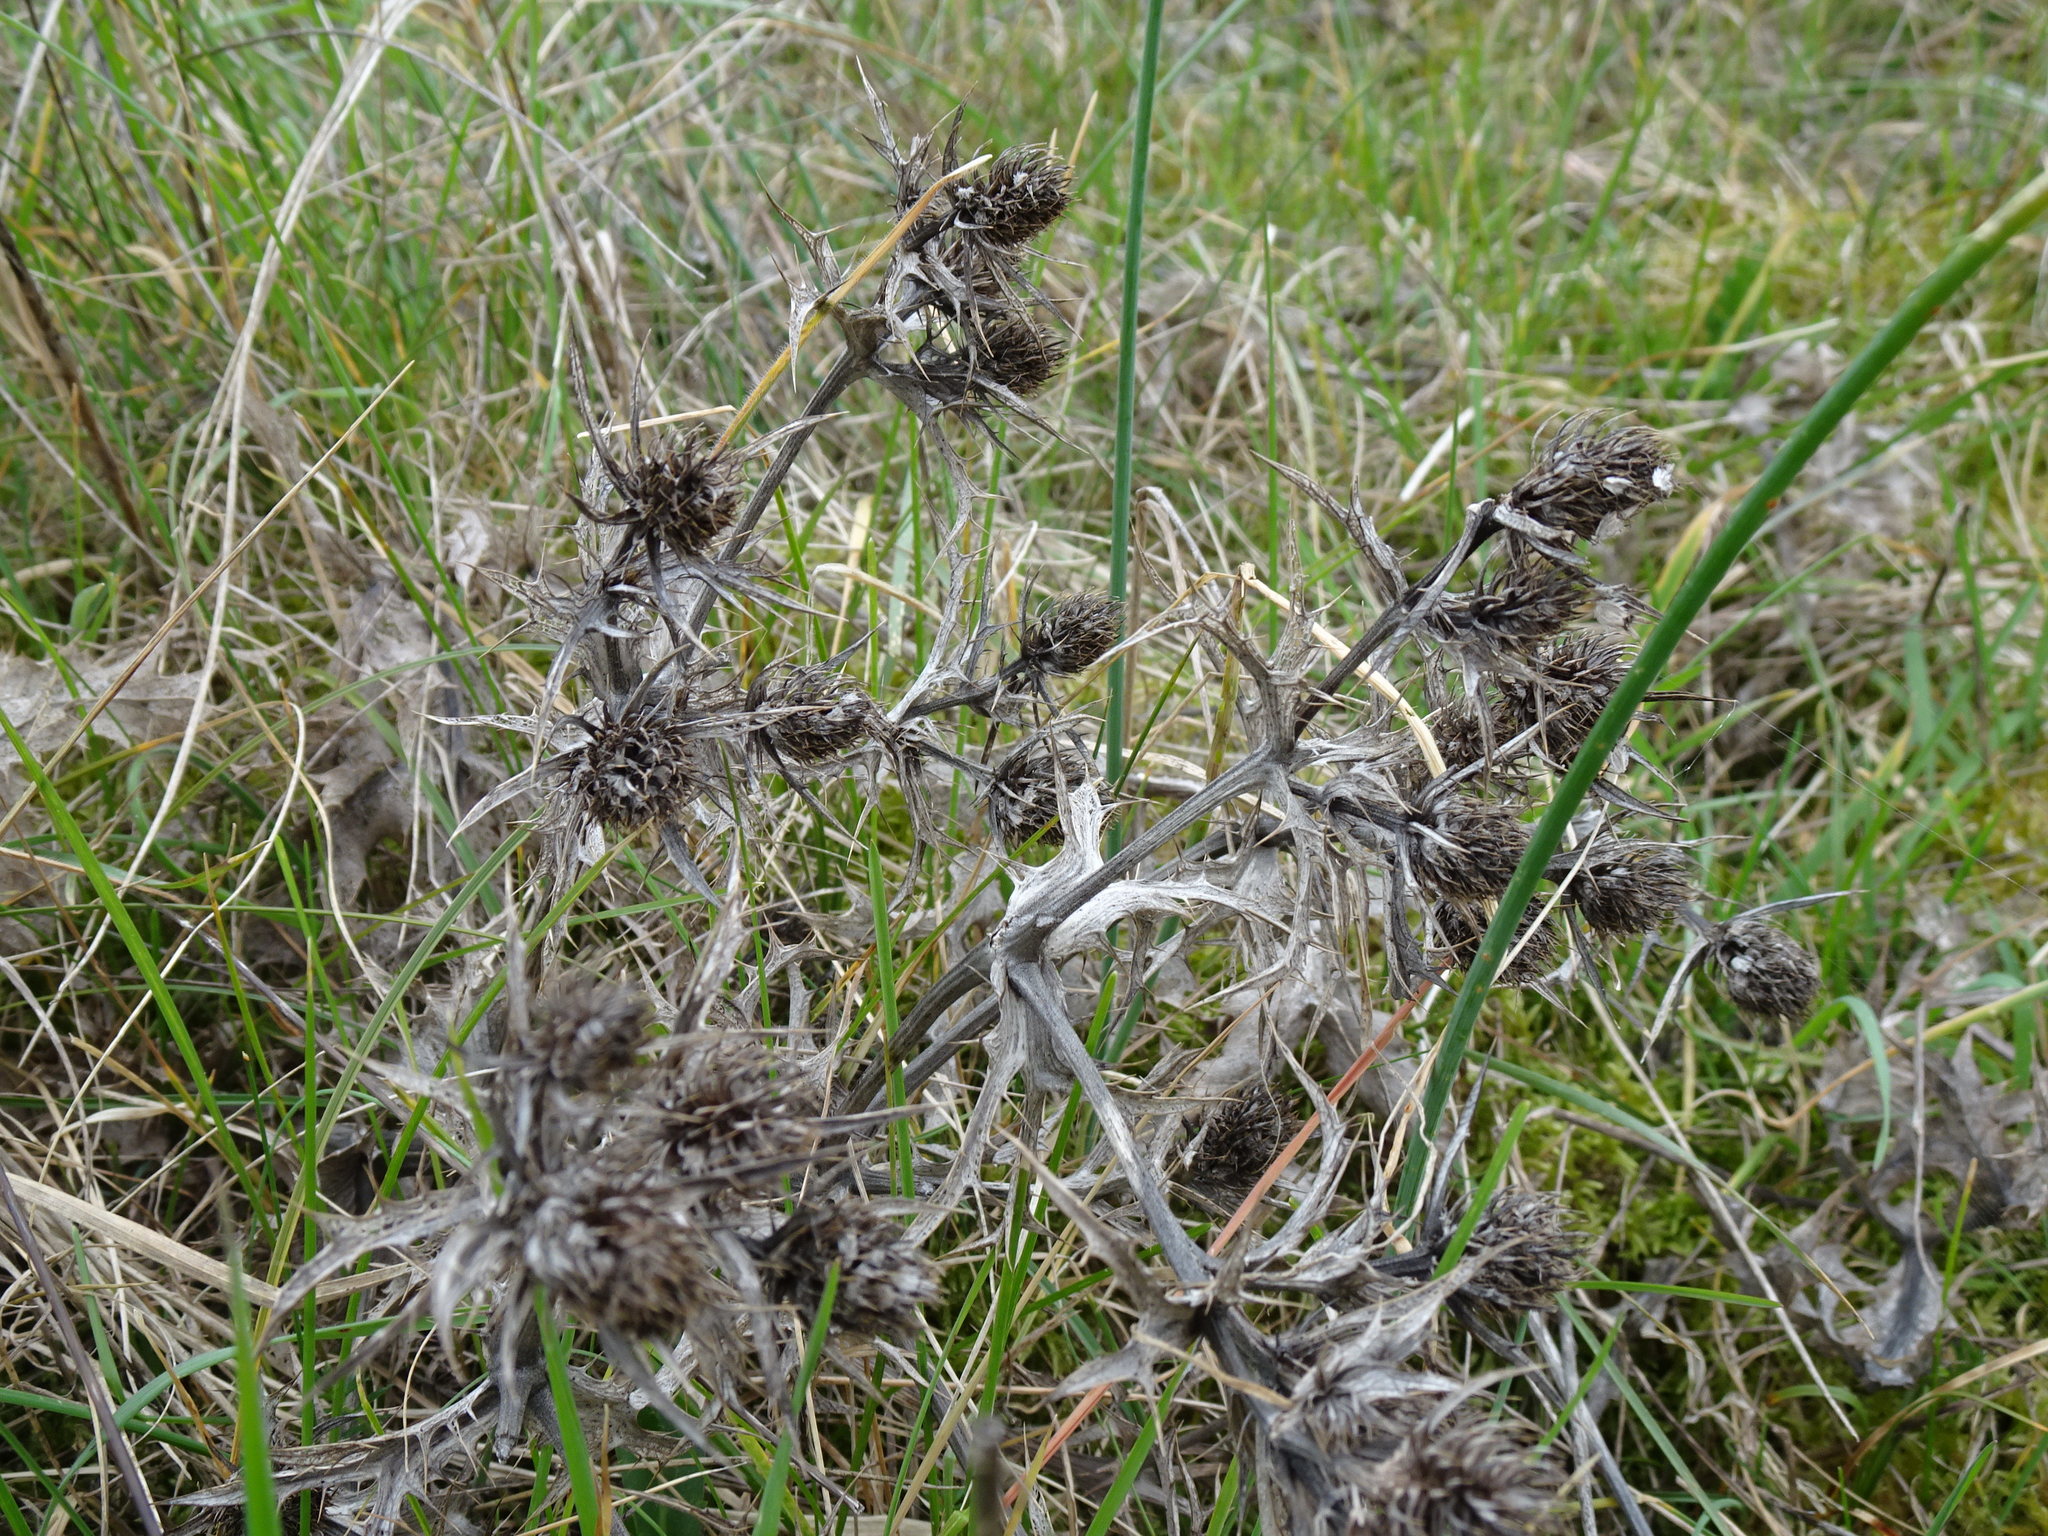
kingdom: Plantae
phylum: Tracheophyta
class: Magnoliopsida
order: Apiales
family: Apiaceae
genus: Eryngium
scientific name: Eryngium campestre
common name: Field eryngo
